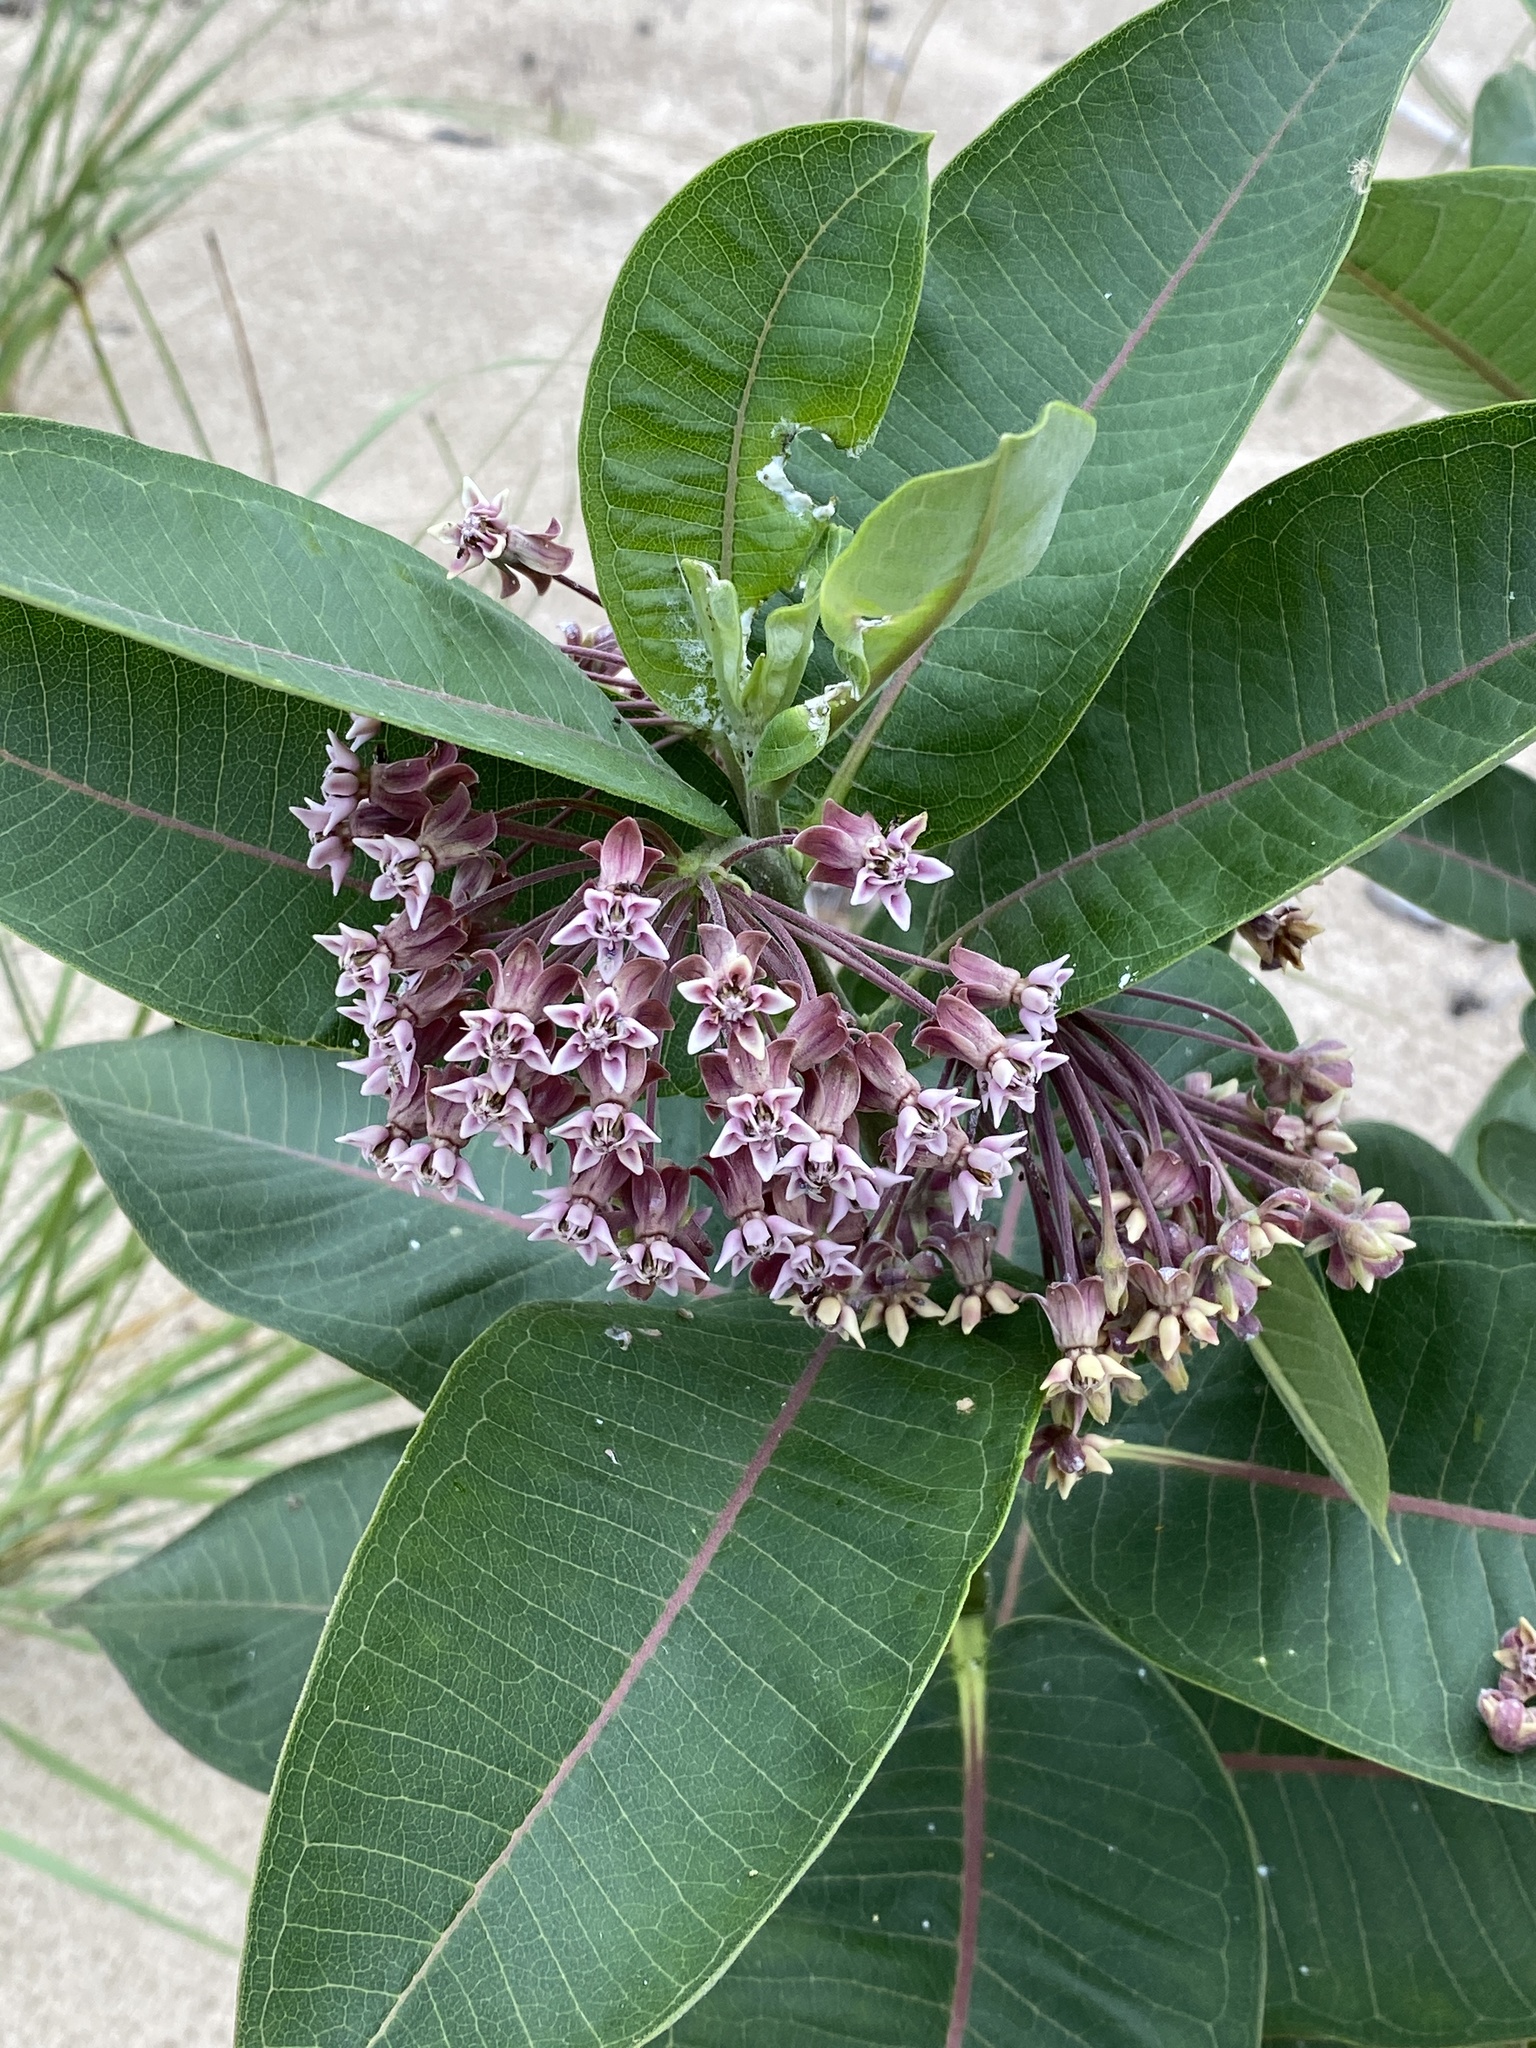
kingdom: Plantae
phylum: Tracheophyta
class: Magnoliopsida
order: Gentianales
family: Apocynaceae
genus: Asclepias
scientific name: Asclepias syriaca
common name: Common milkweed
